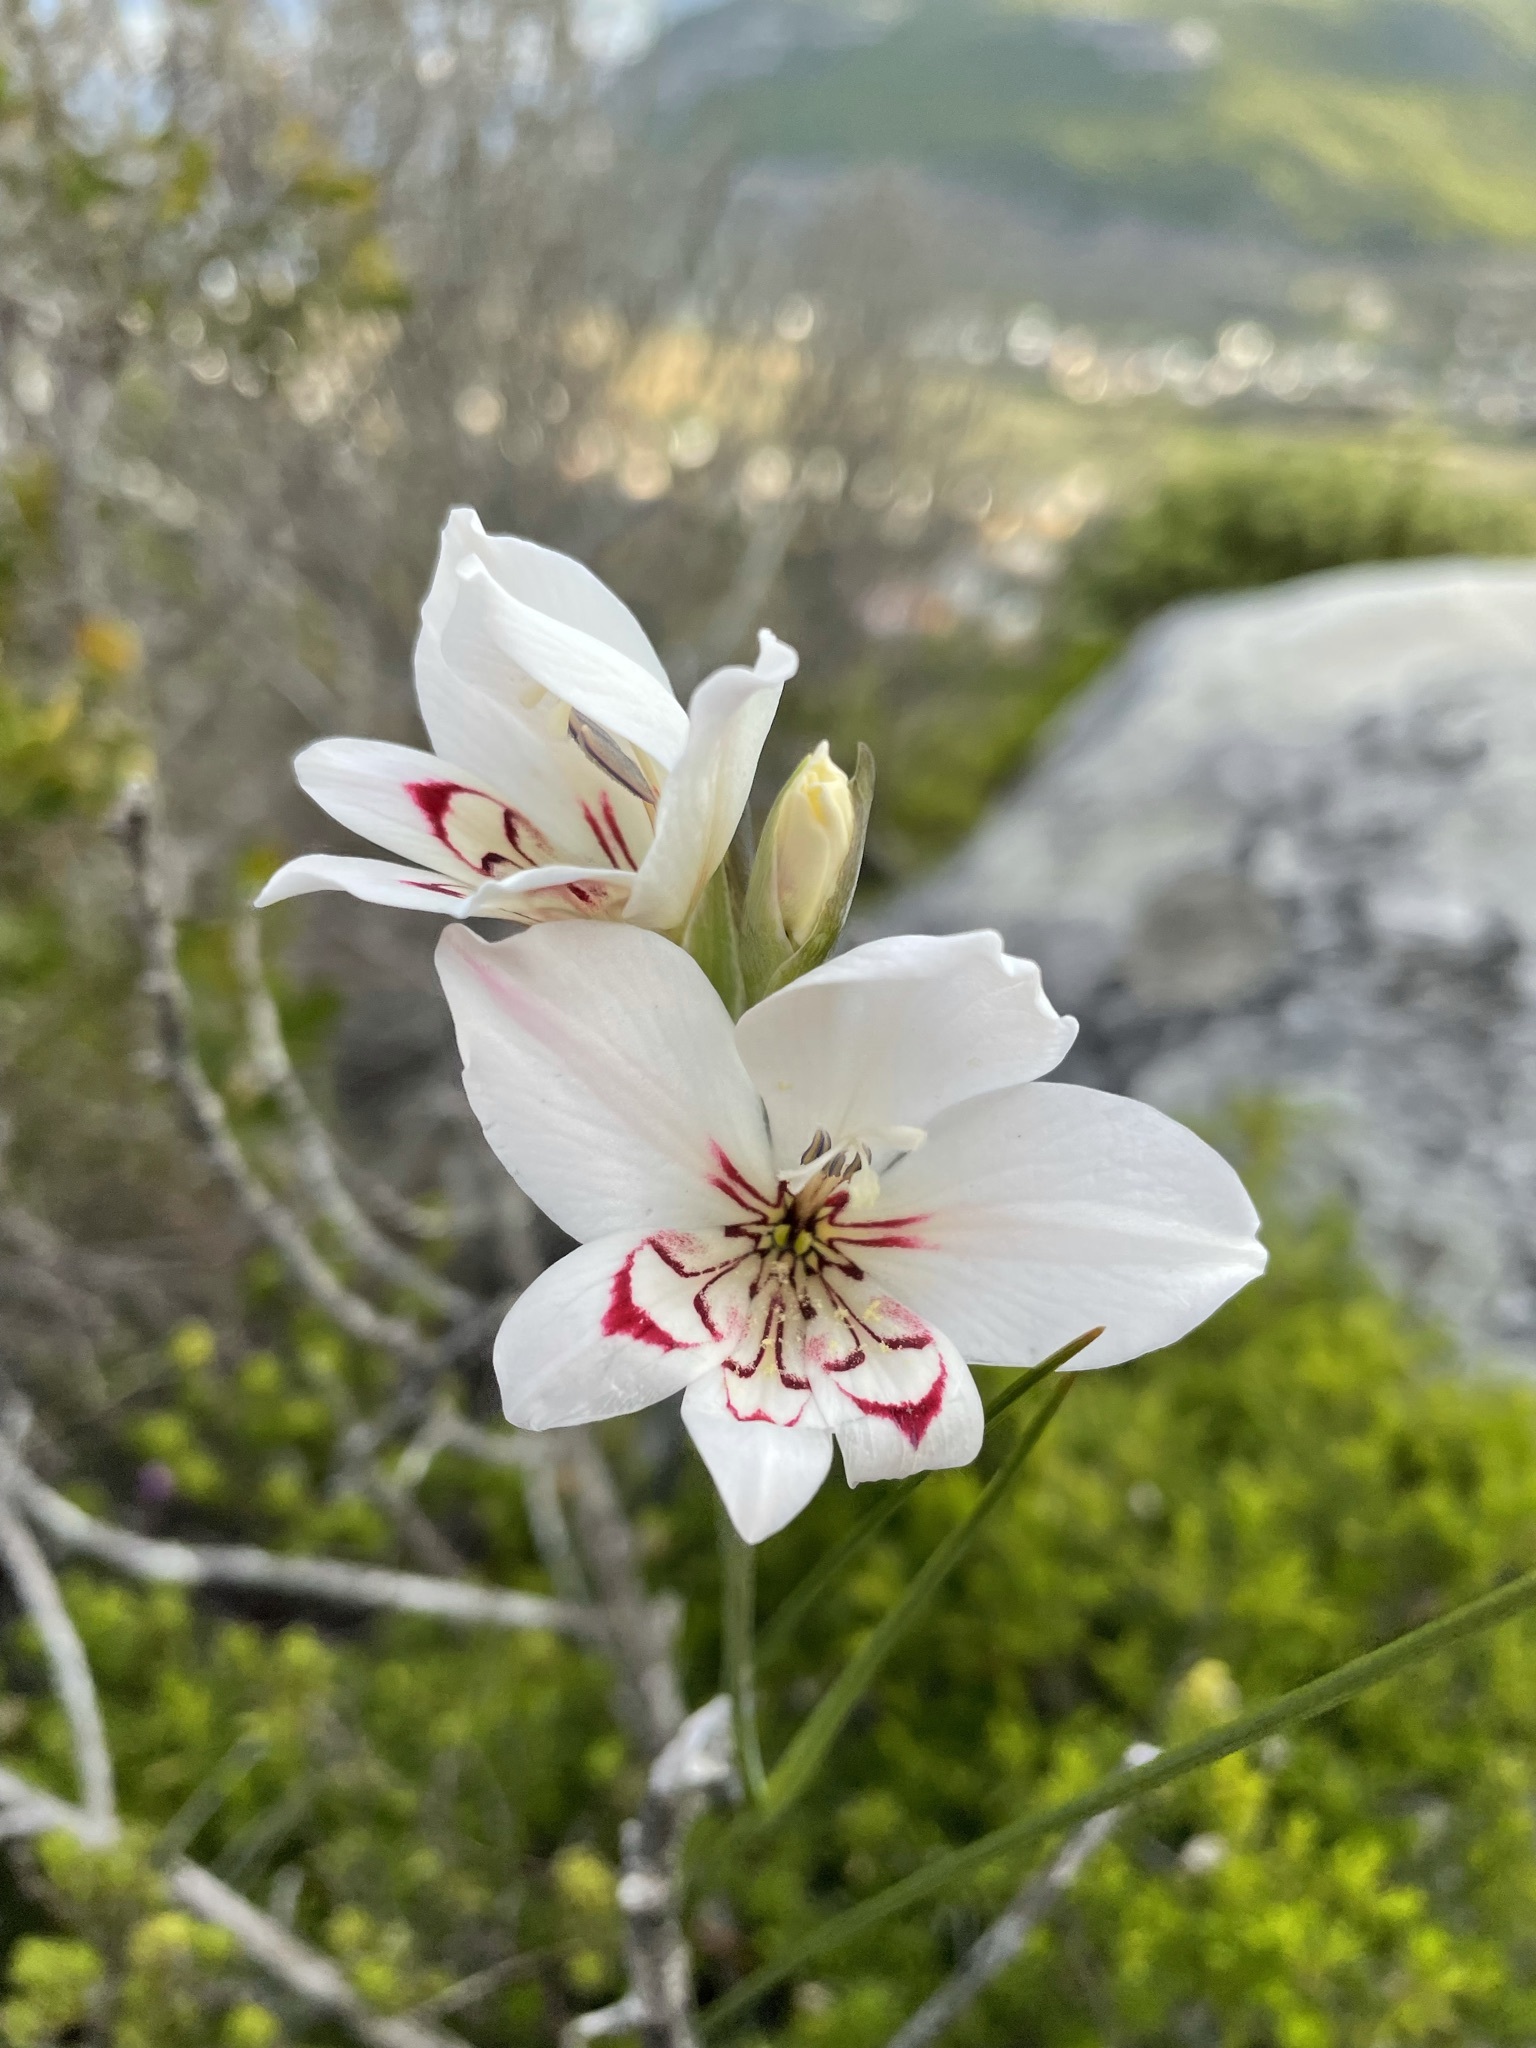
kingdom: Plantae
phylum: Tracheophyta
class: Liliopsida
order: Asparagales
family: Iridaceae
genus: Gladiolus
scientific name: Gladiolus debilis
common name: Painted-lady
